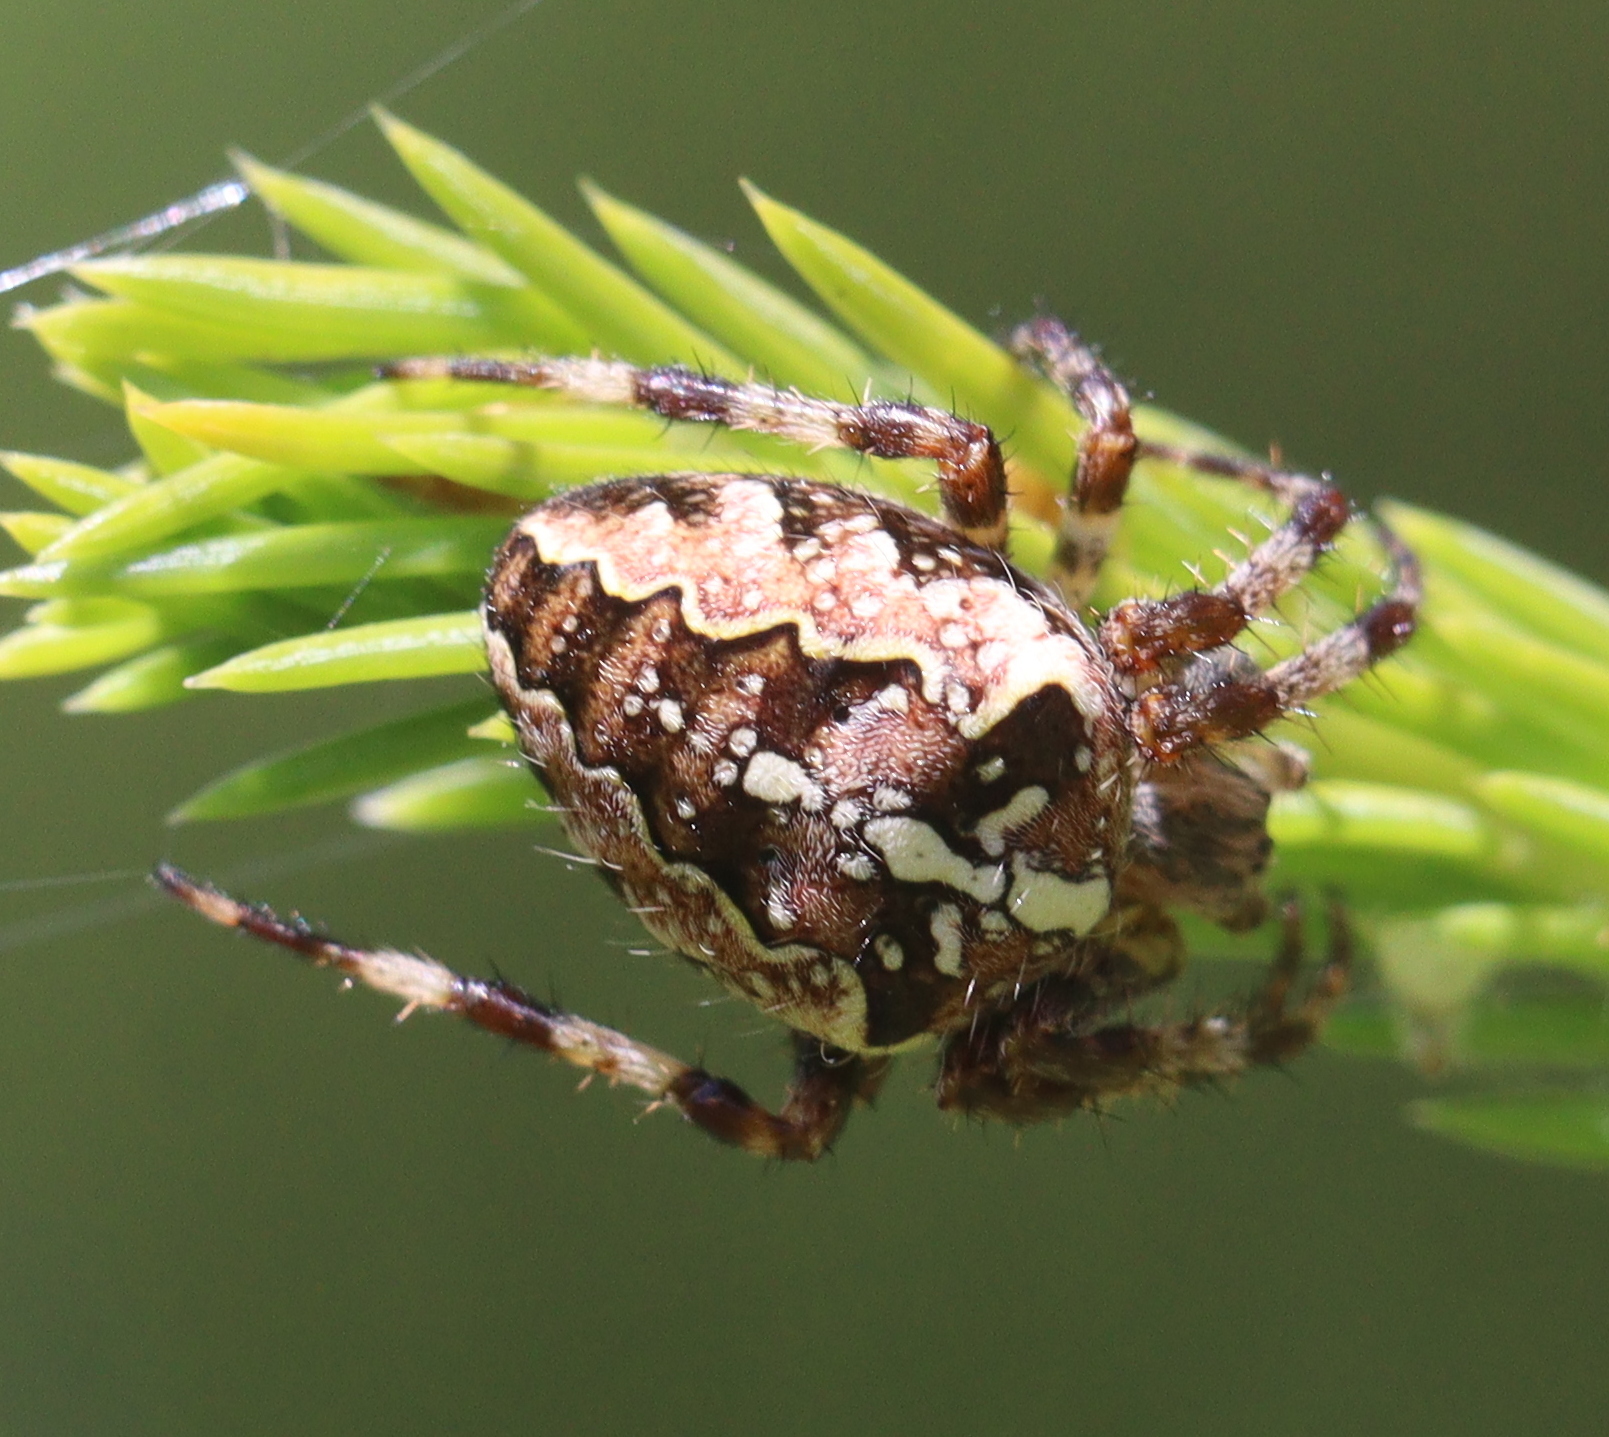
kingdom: Animalia
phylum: Arthropoda
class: Arachnida
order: Araneae
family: Araneidae
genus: Araneus
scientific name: Araneus diadematus
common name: Cross orbweaver
